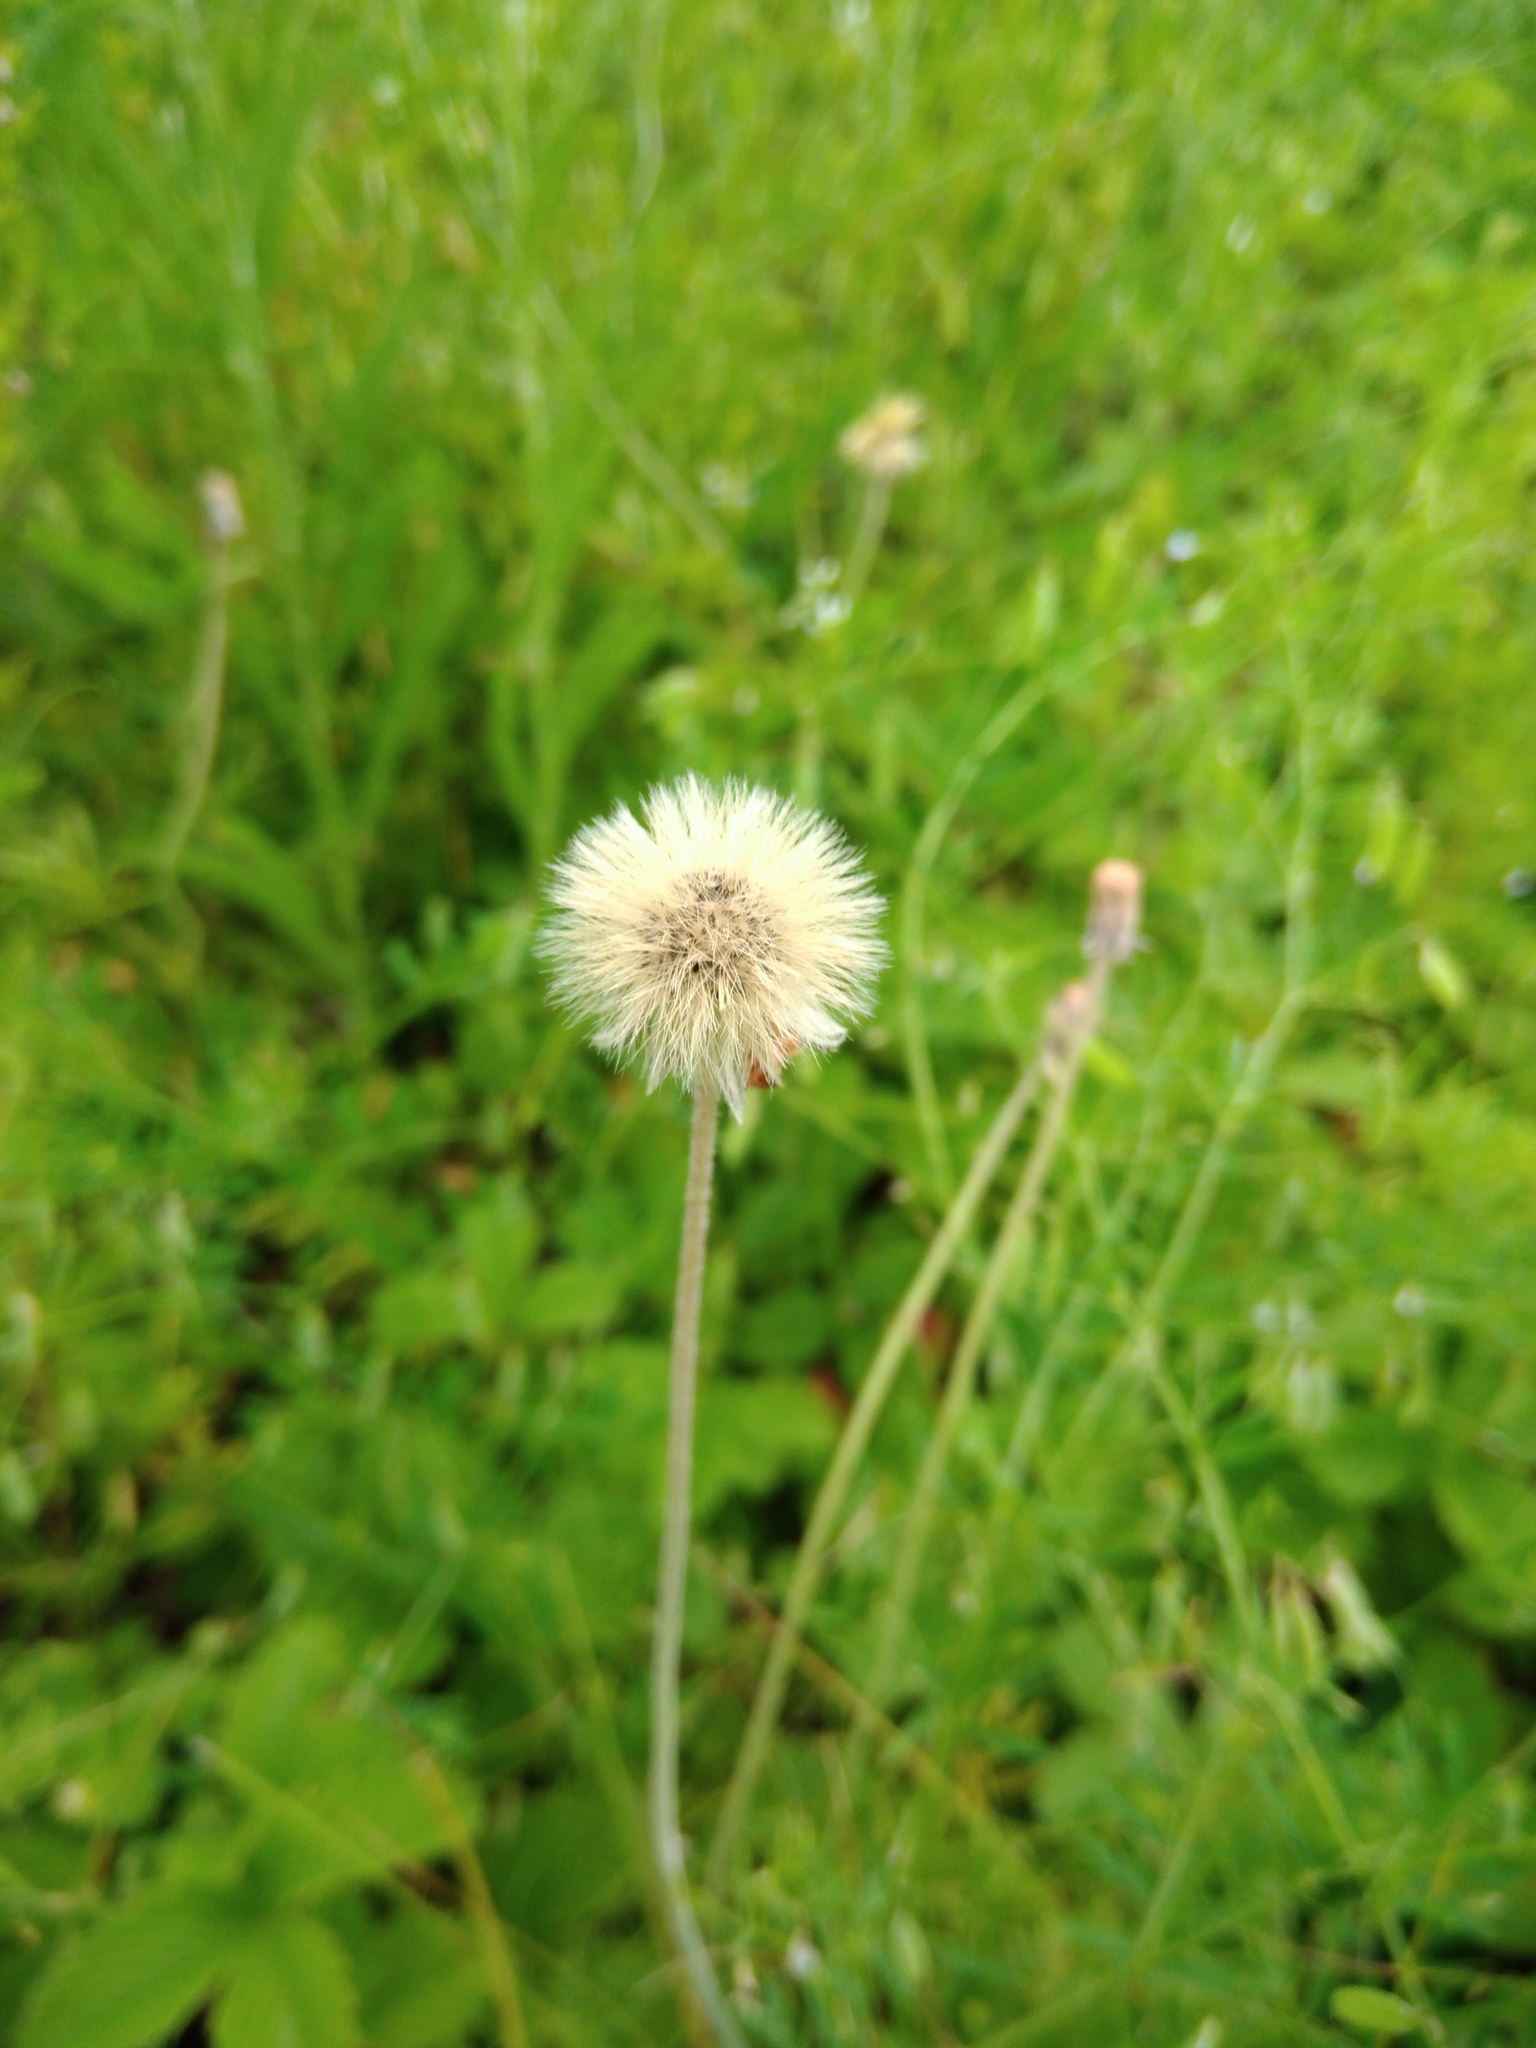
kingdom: Plantae
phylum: Tracheophyta
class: Magnoliopsida
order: Asterales
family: Asteraceae
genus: Pilosella
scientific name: Pilosella officinarum
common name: Mouse-ear hawkweed
